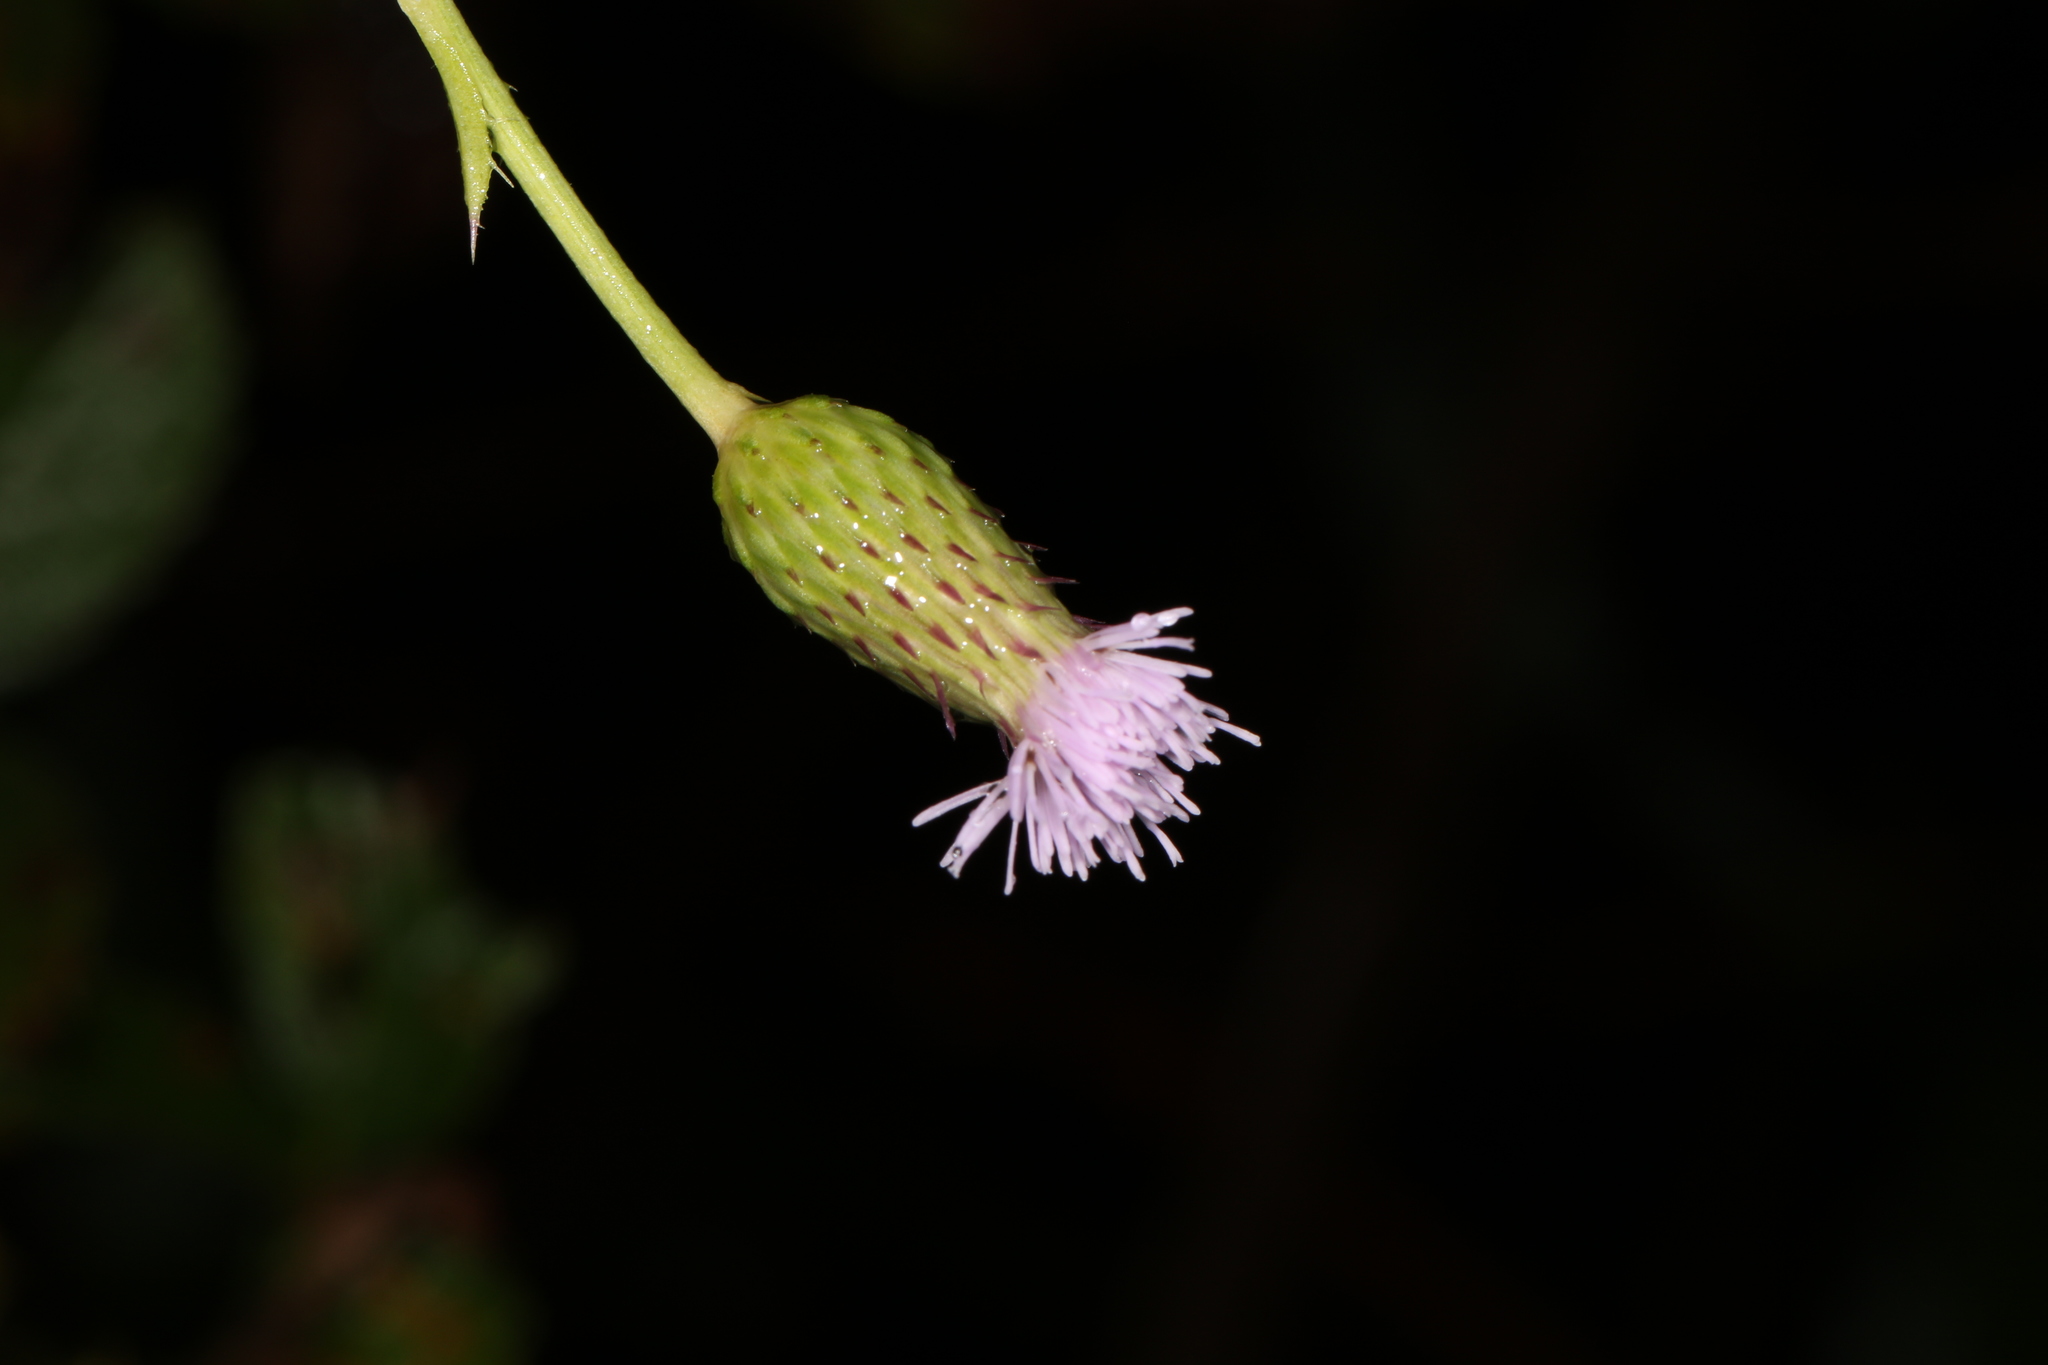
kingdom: Plantae
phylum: Tracheophyta
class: Magnoliopsida
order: Asterales
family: Asteraceae
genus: Cirsium
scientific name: Cirsium arvense
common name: Creeping thistle
